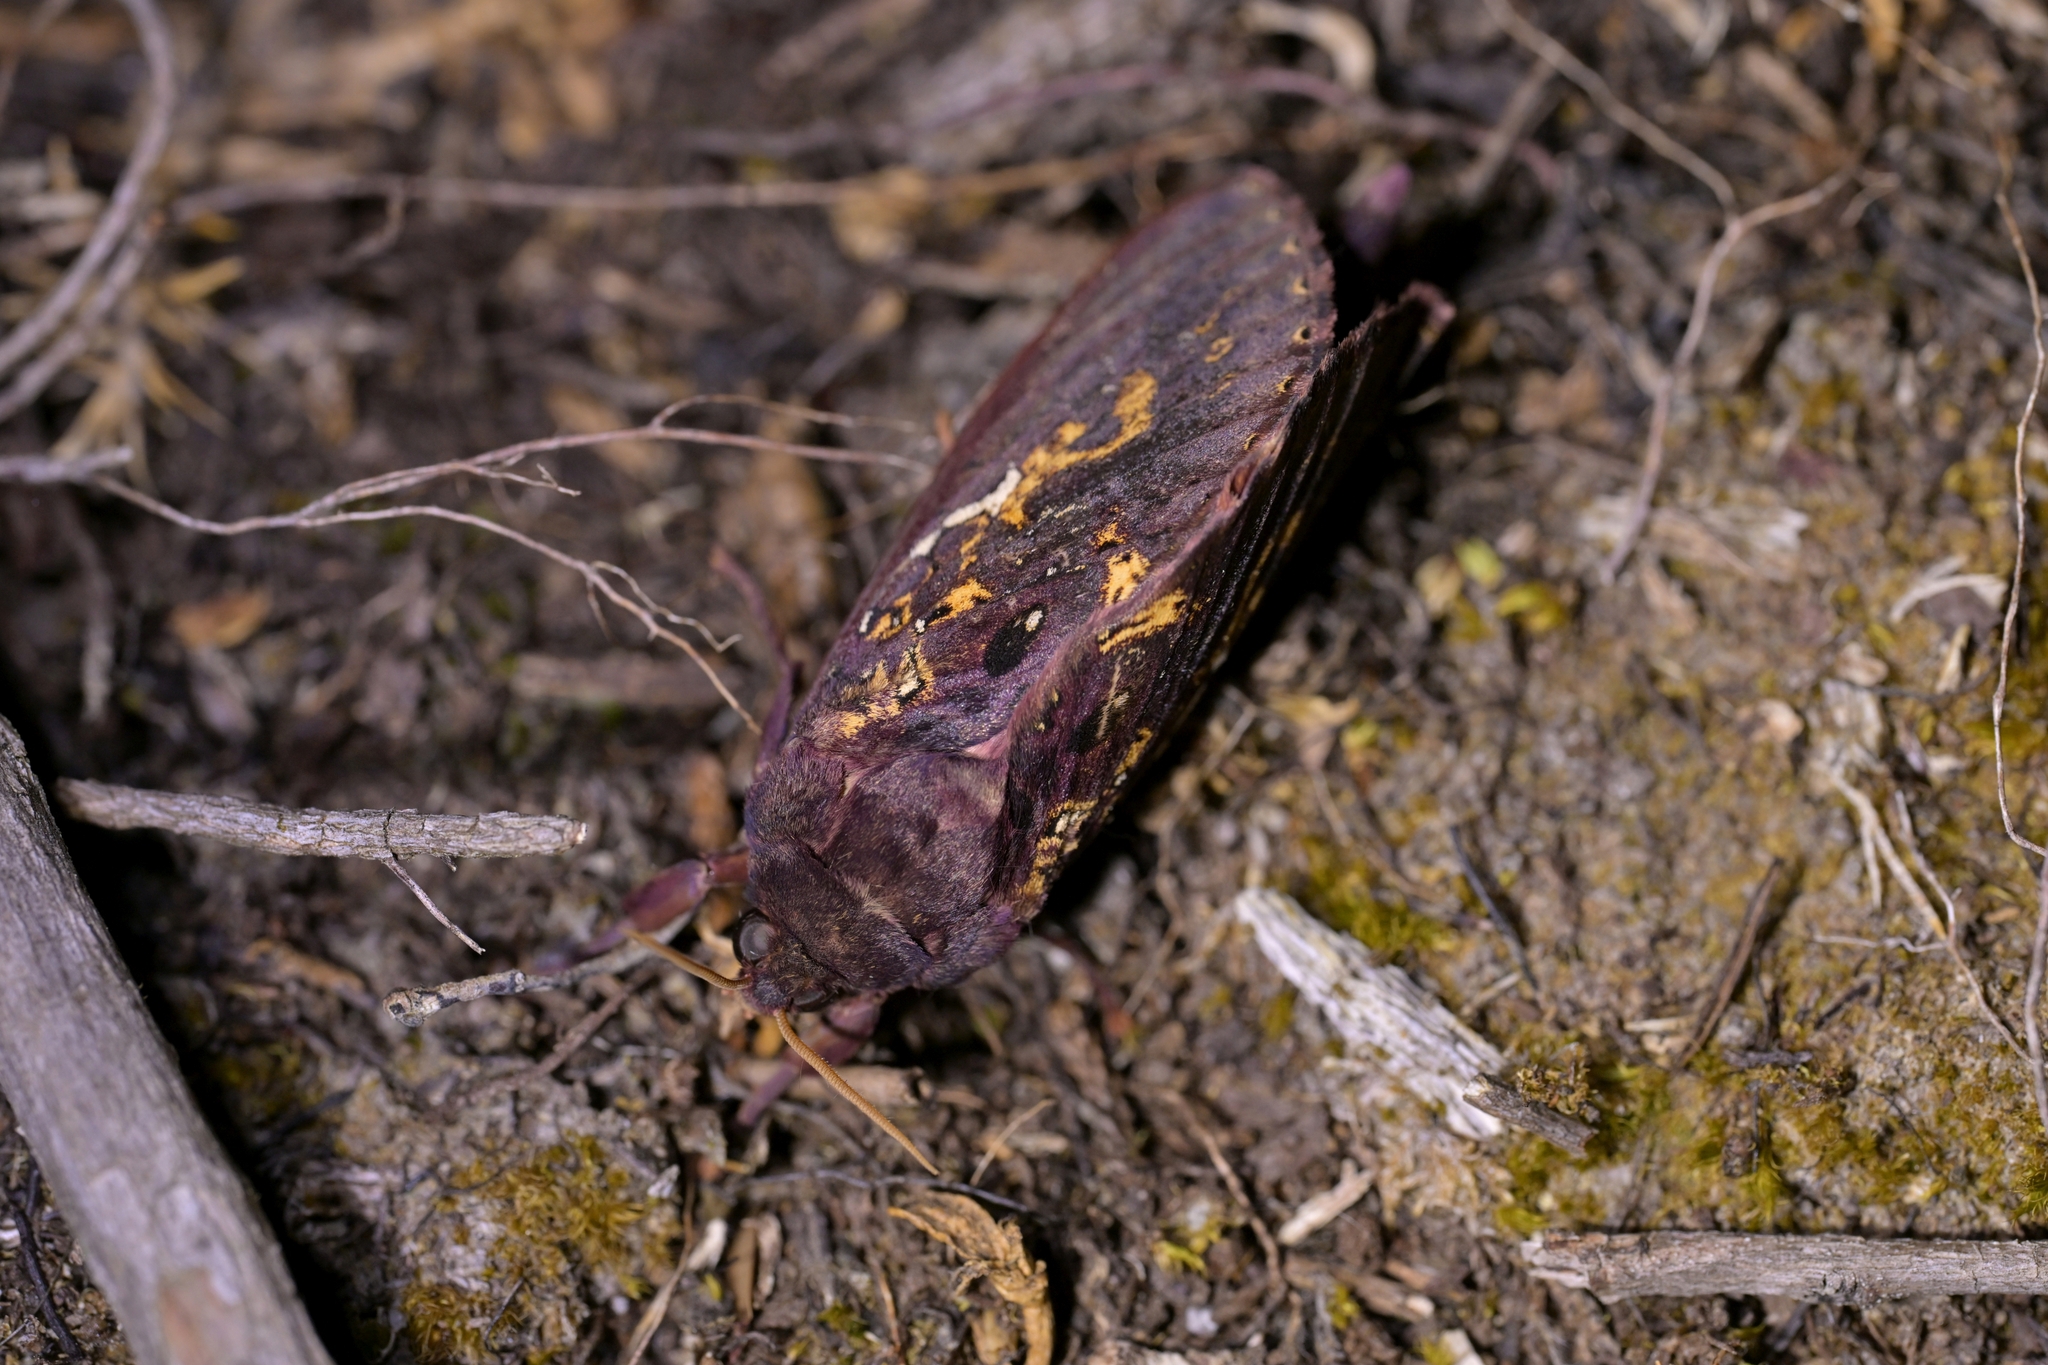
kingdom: Animalia
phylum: Arthropoda
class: Insecta
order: Lepidoptera
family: Hepialidae
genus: Dumbletonius
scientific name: Dumbletonius unimaculata
